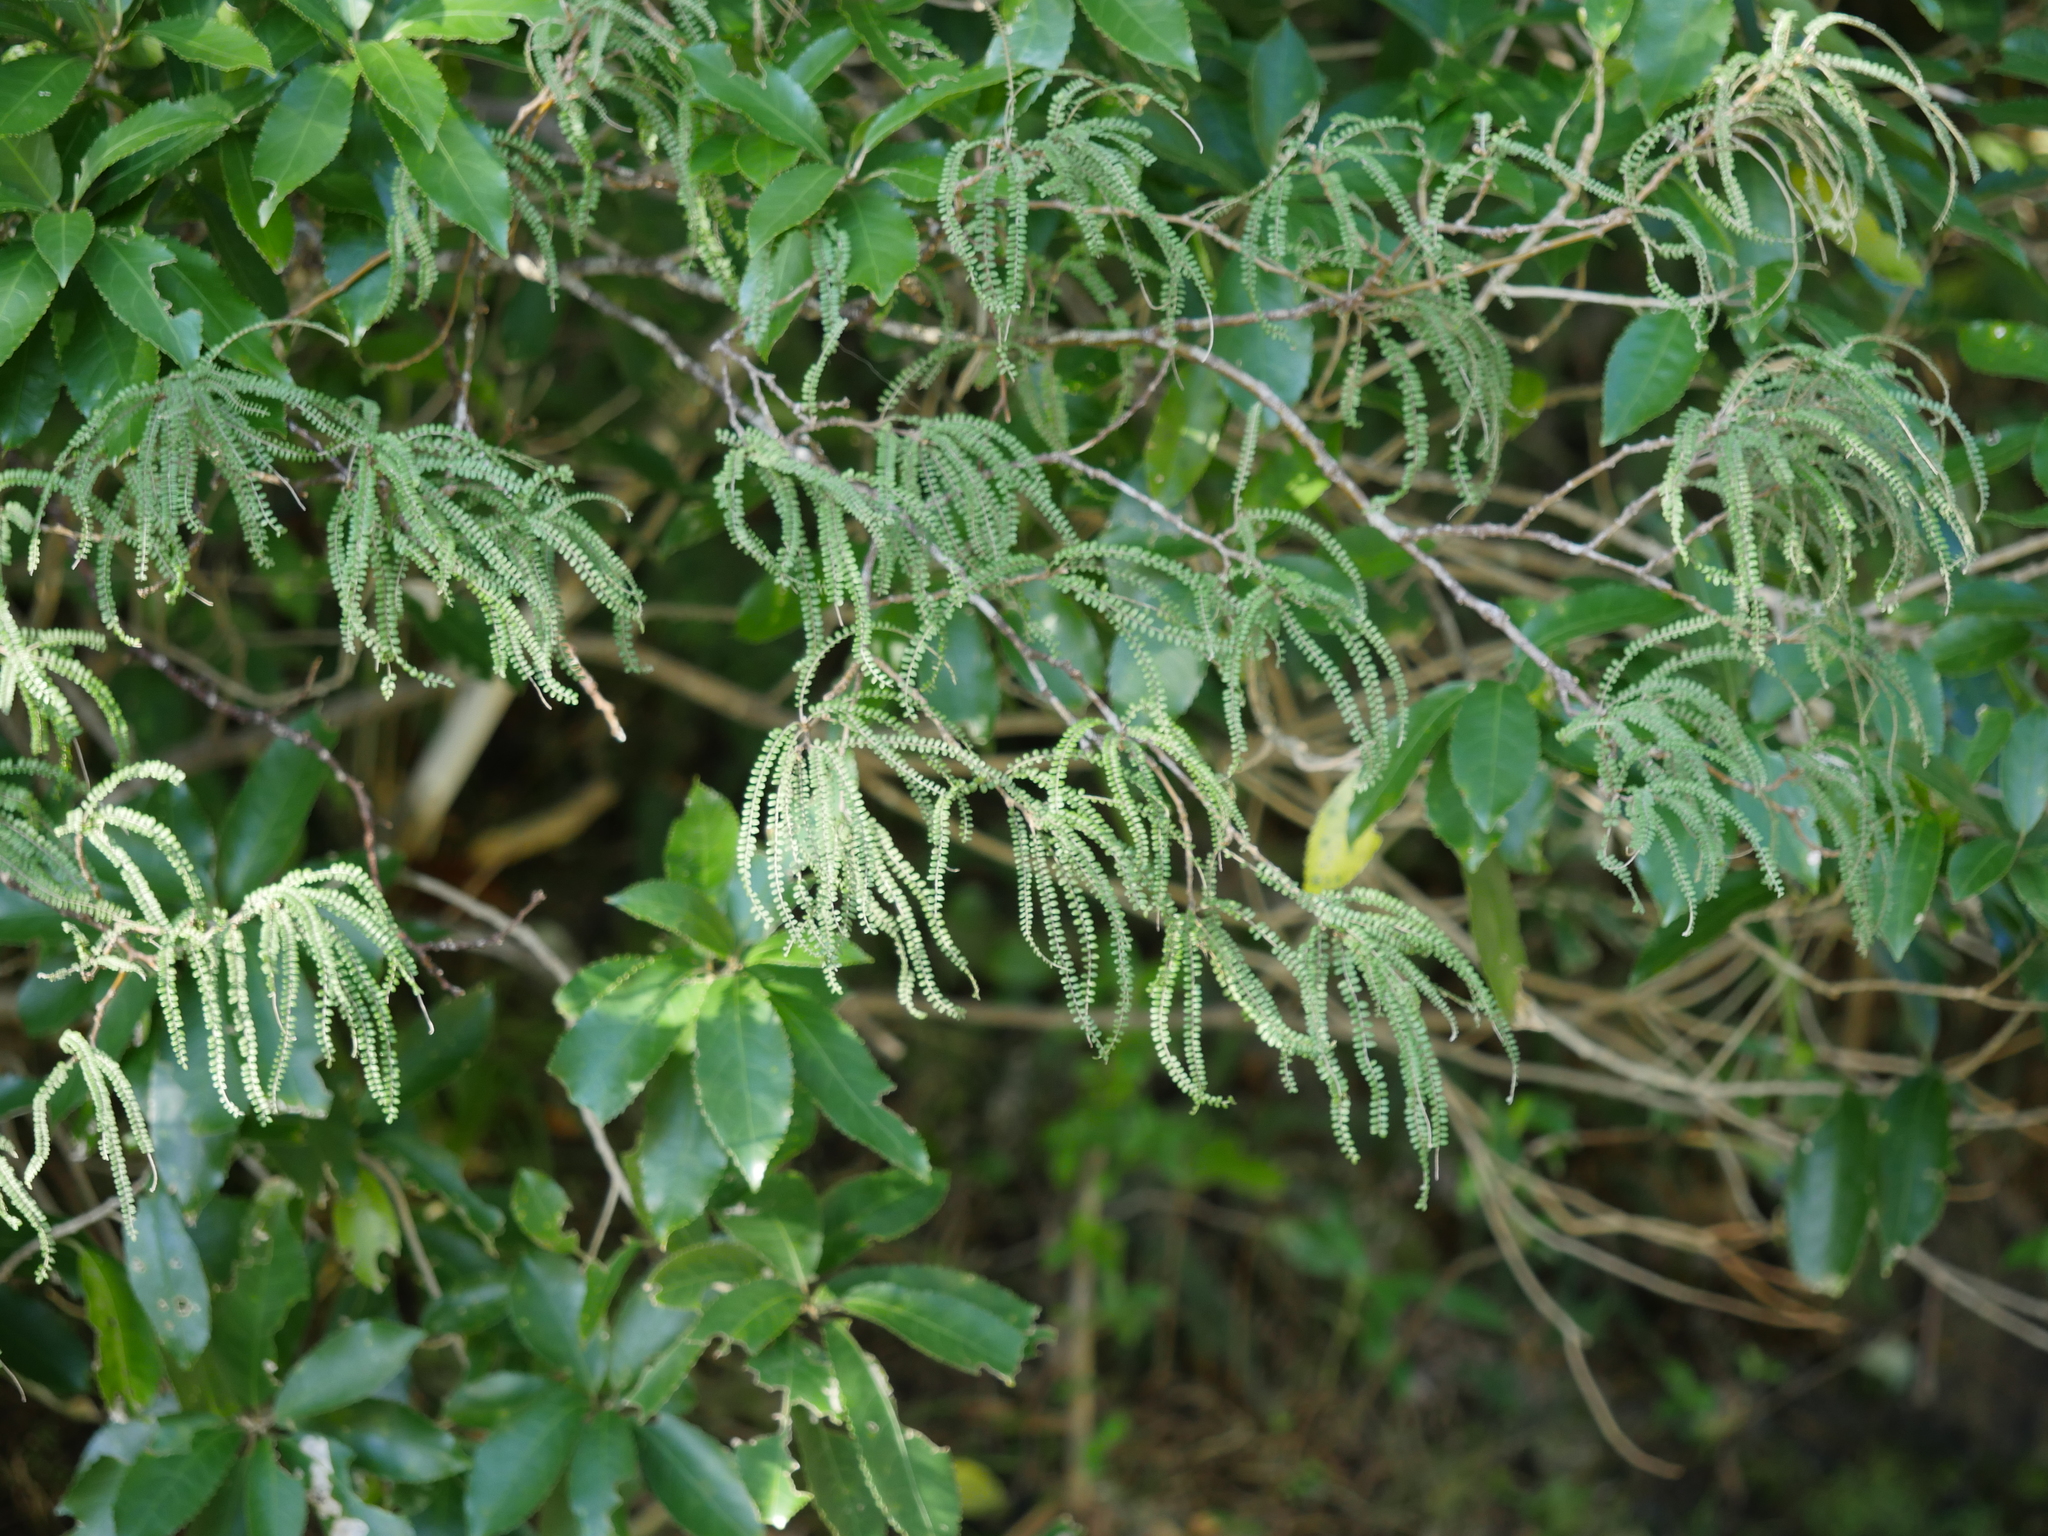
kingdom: Plantae
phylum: Tracheophyta
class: Magnoliopsida
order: Fabales
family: Fabaceae
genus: Sophora
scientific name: Sophora fulvida
